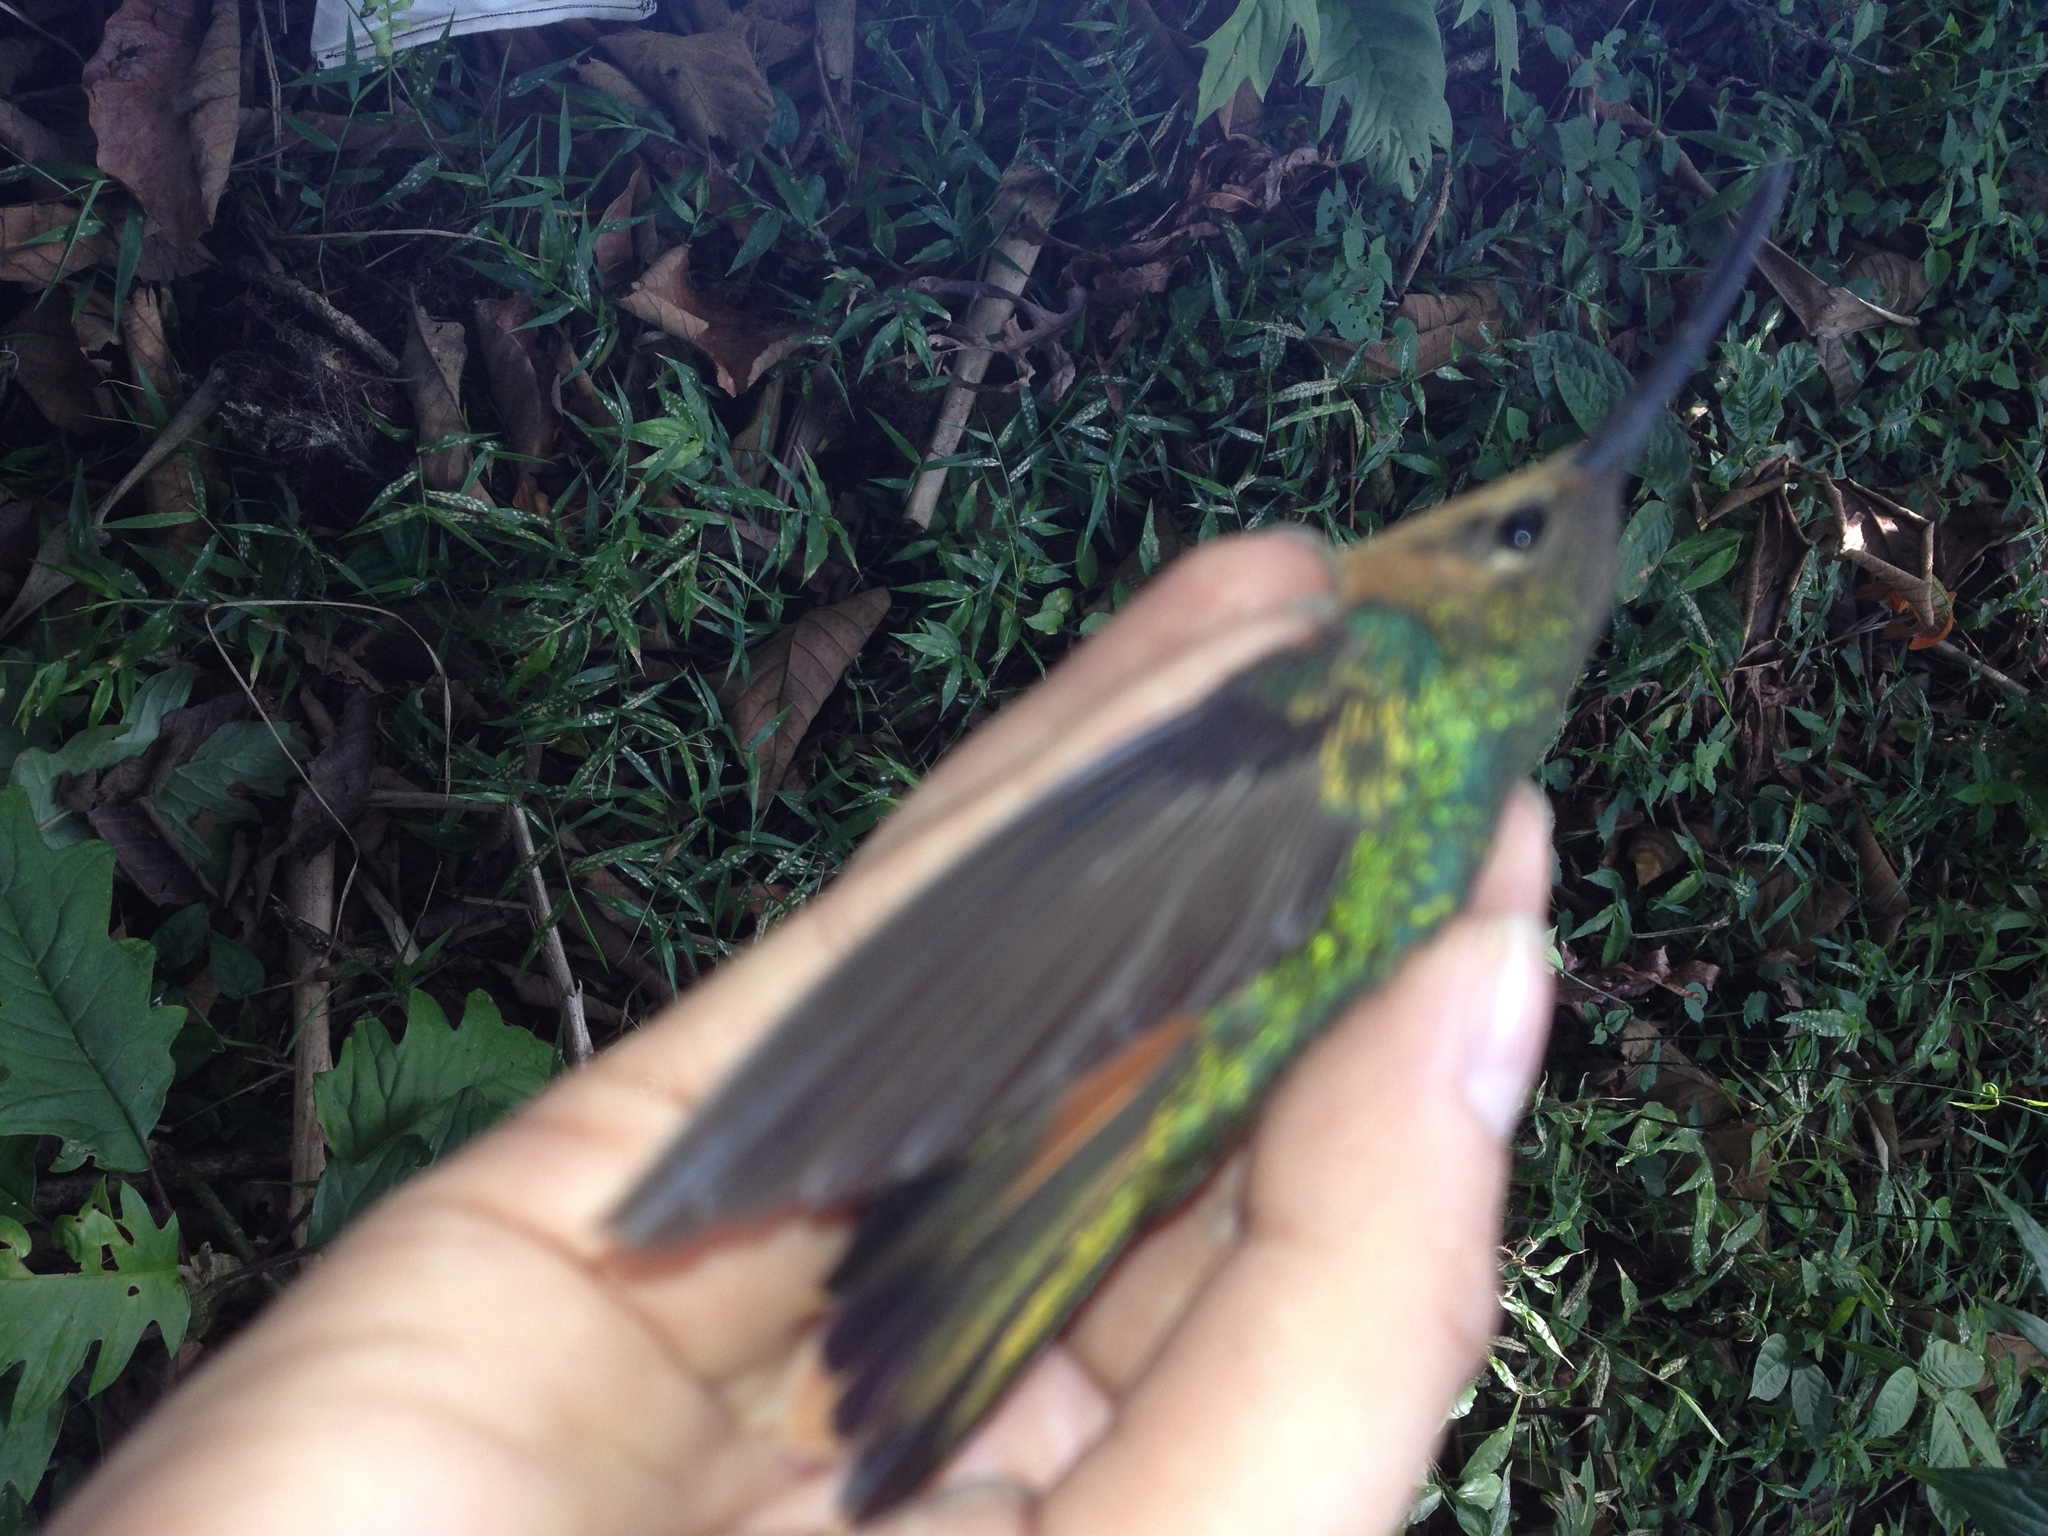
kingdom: Animalia
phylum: Chordata
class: Aves
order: Apodiformes
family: Trochilidae
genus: Pampa
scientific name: Pampa rufa
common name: Rufous sabrewing
